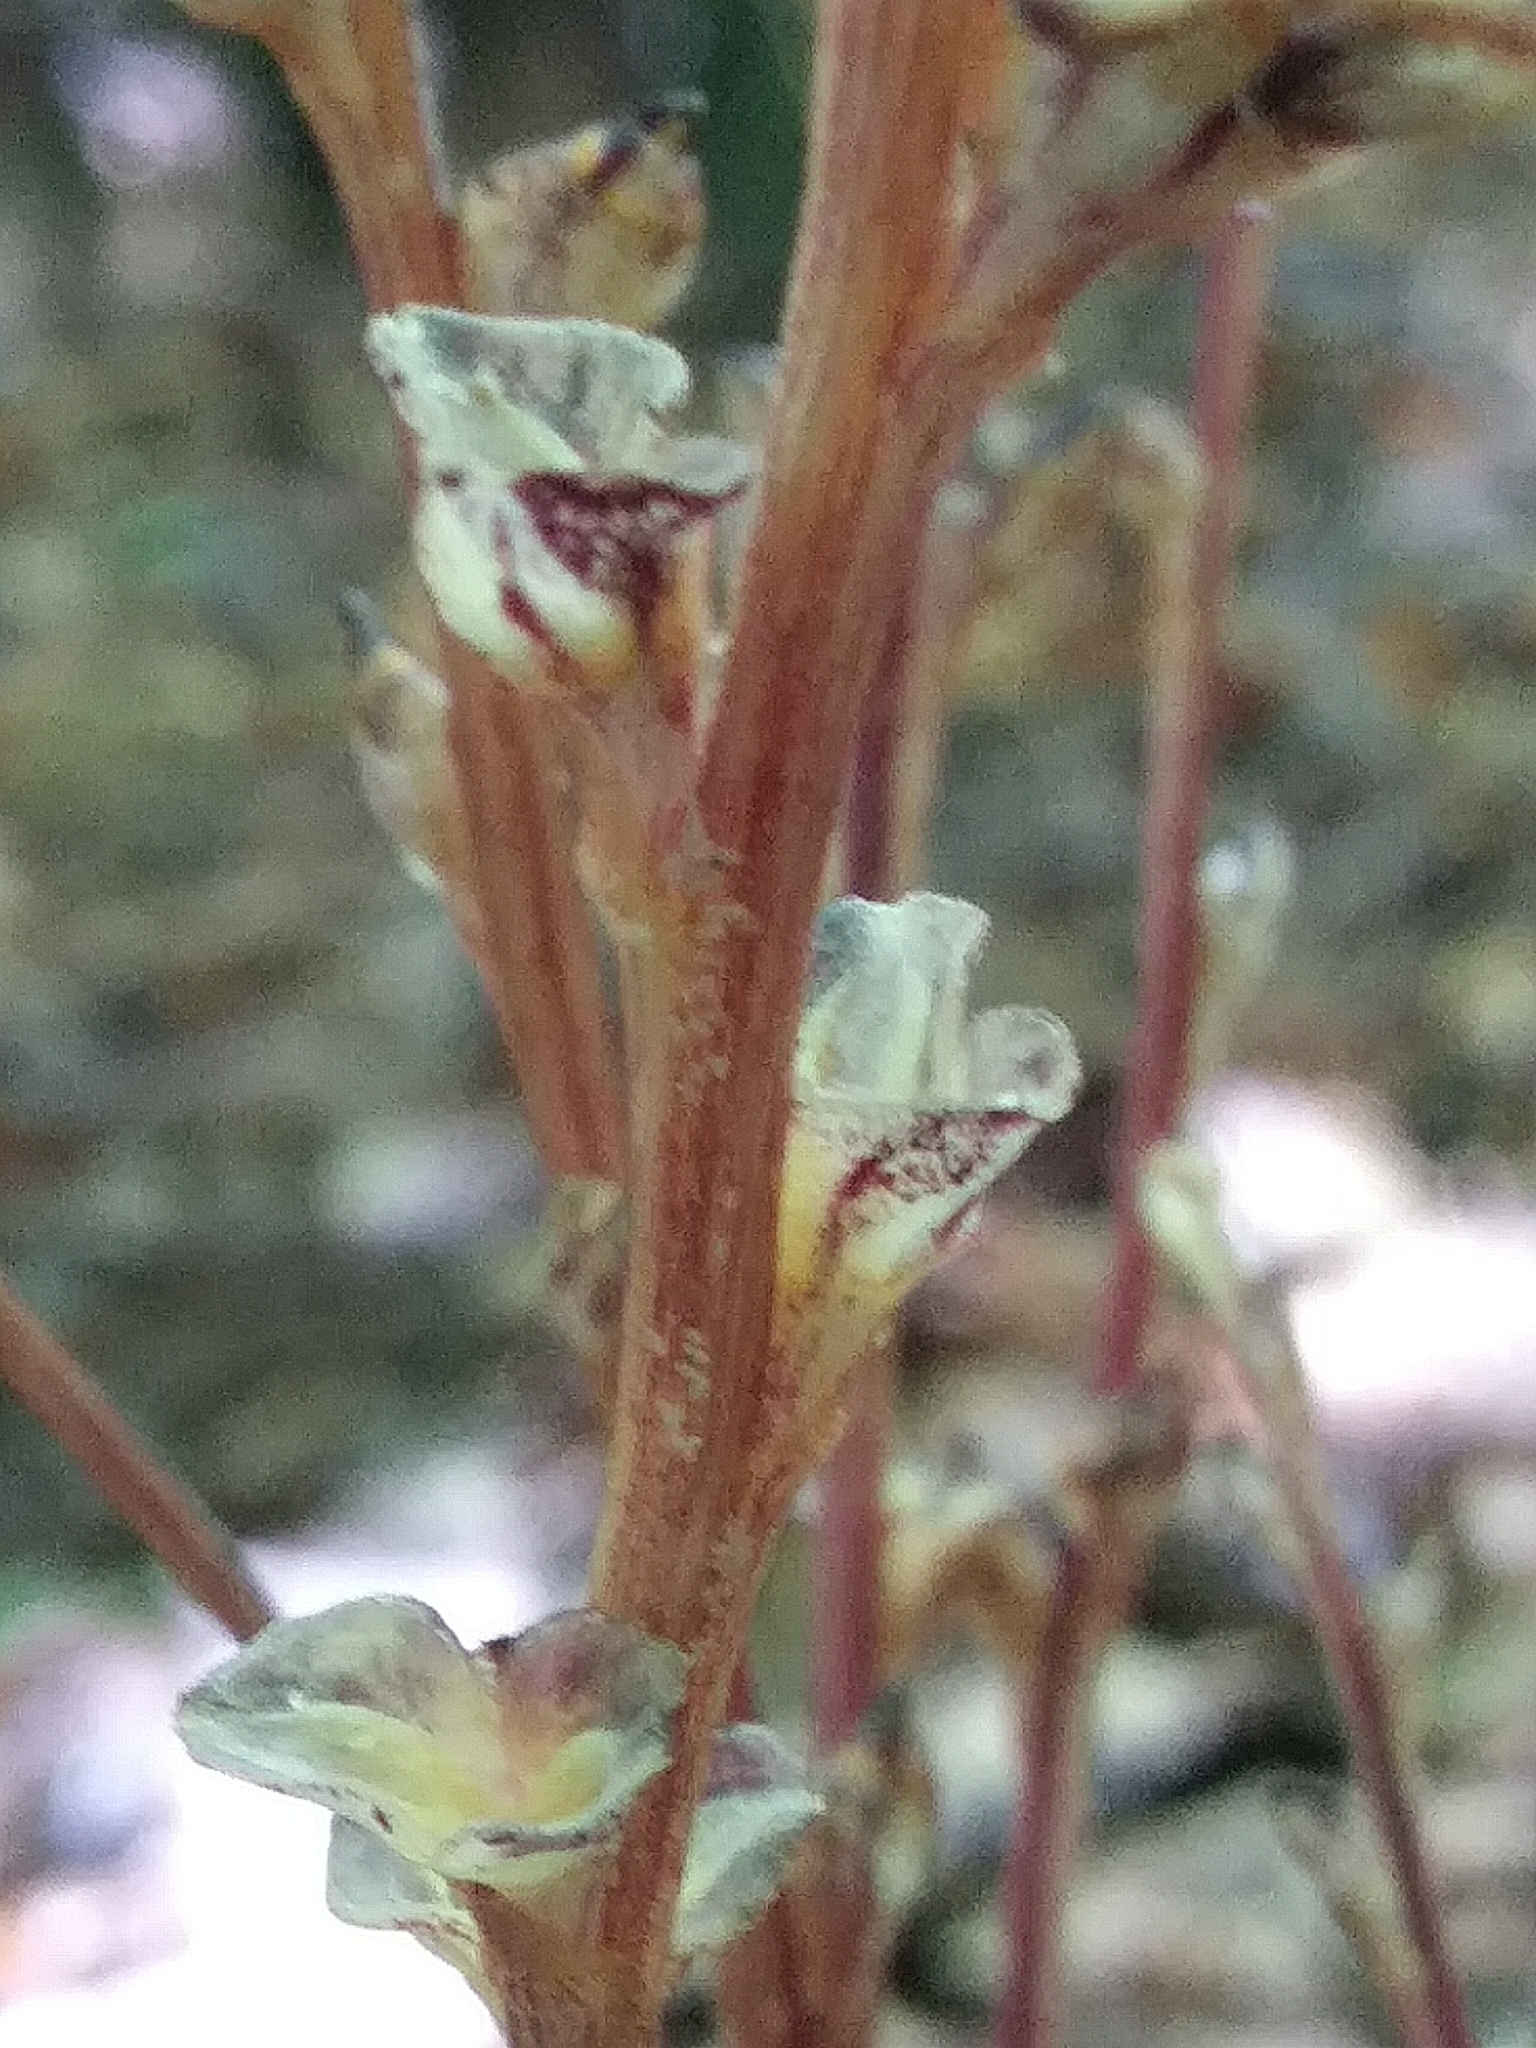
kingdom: Plantae
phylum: Tracheophyta
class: Magnoliopsida
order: Lamiales
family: Orobanchaceae
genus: Epifagus
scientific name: Epifagus virginiana
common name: Beechdrops
